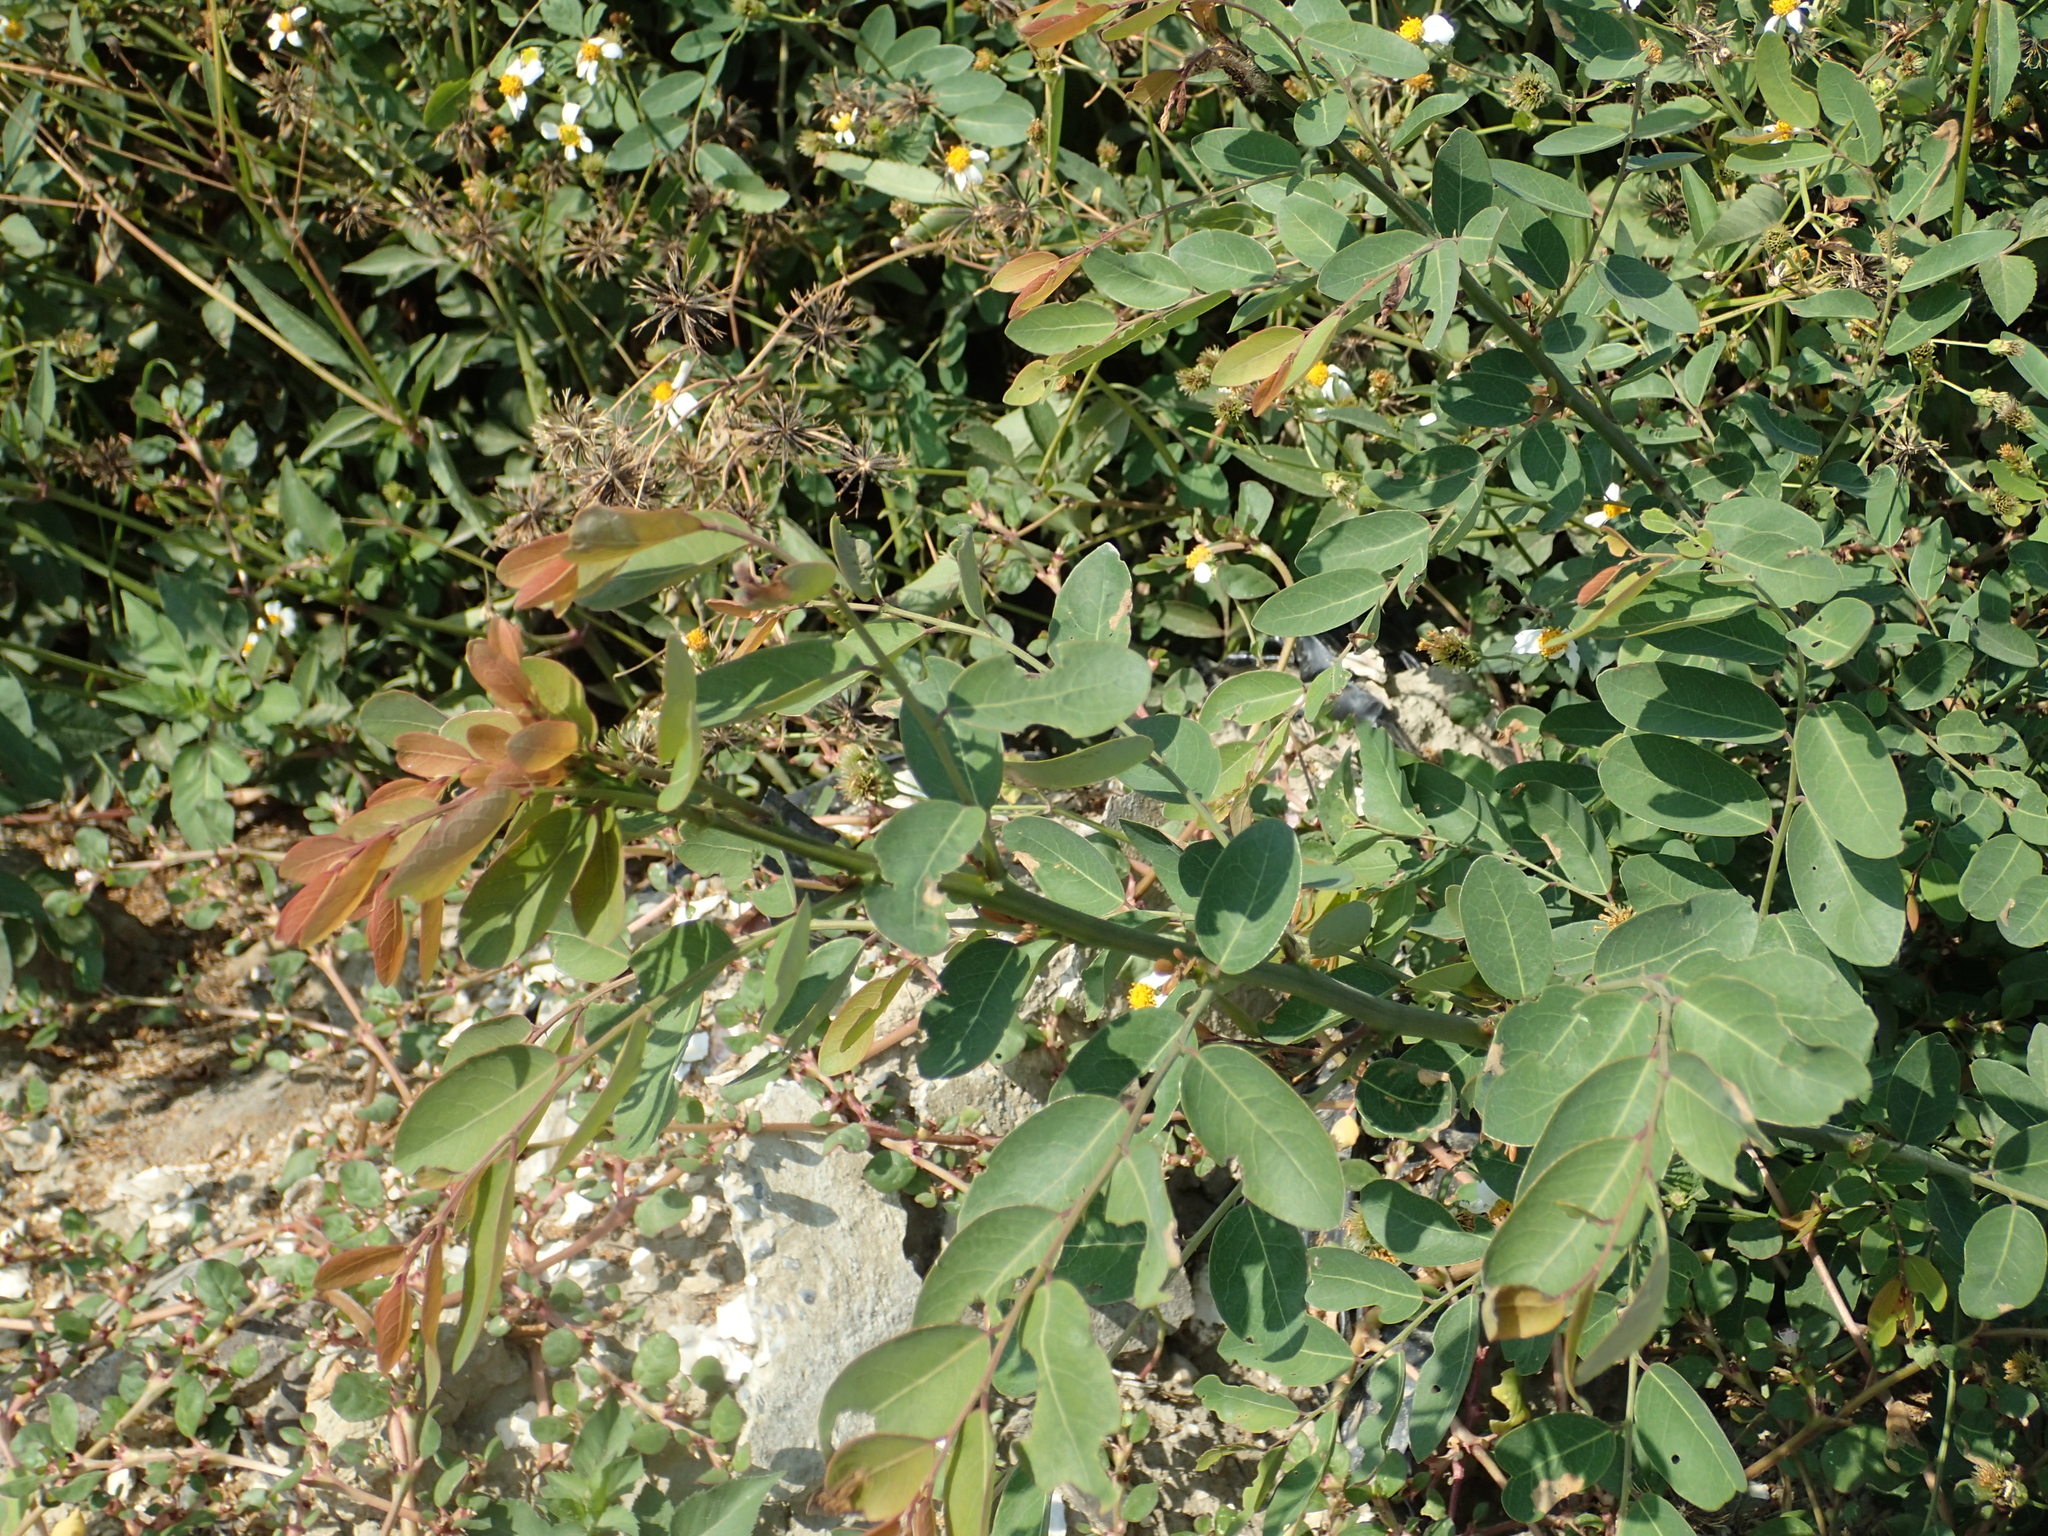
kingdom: Plantae
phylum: Tracheophyta
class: Magnoliopsida
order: Malpighiales
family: Phyllanthaceae
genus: Phyllanthus
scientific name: Phyllanthus reticulatus
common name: Potato bush
